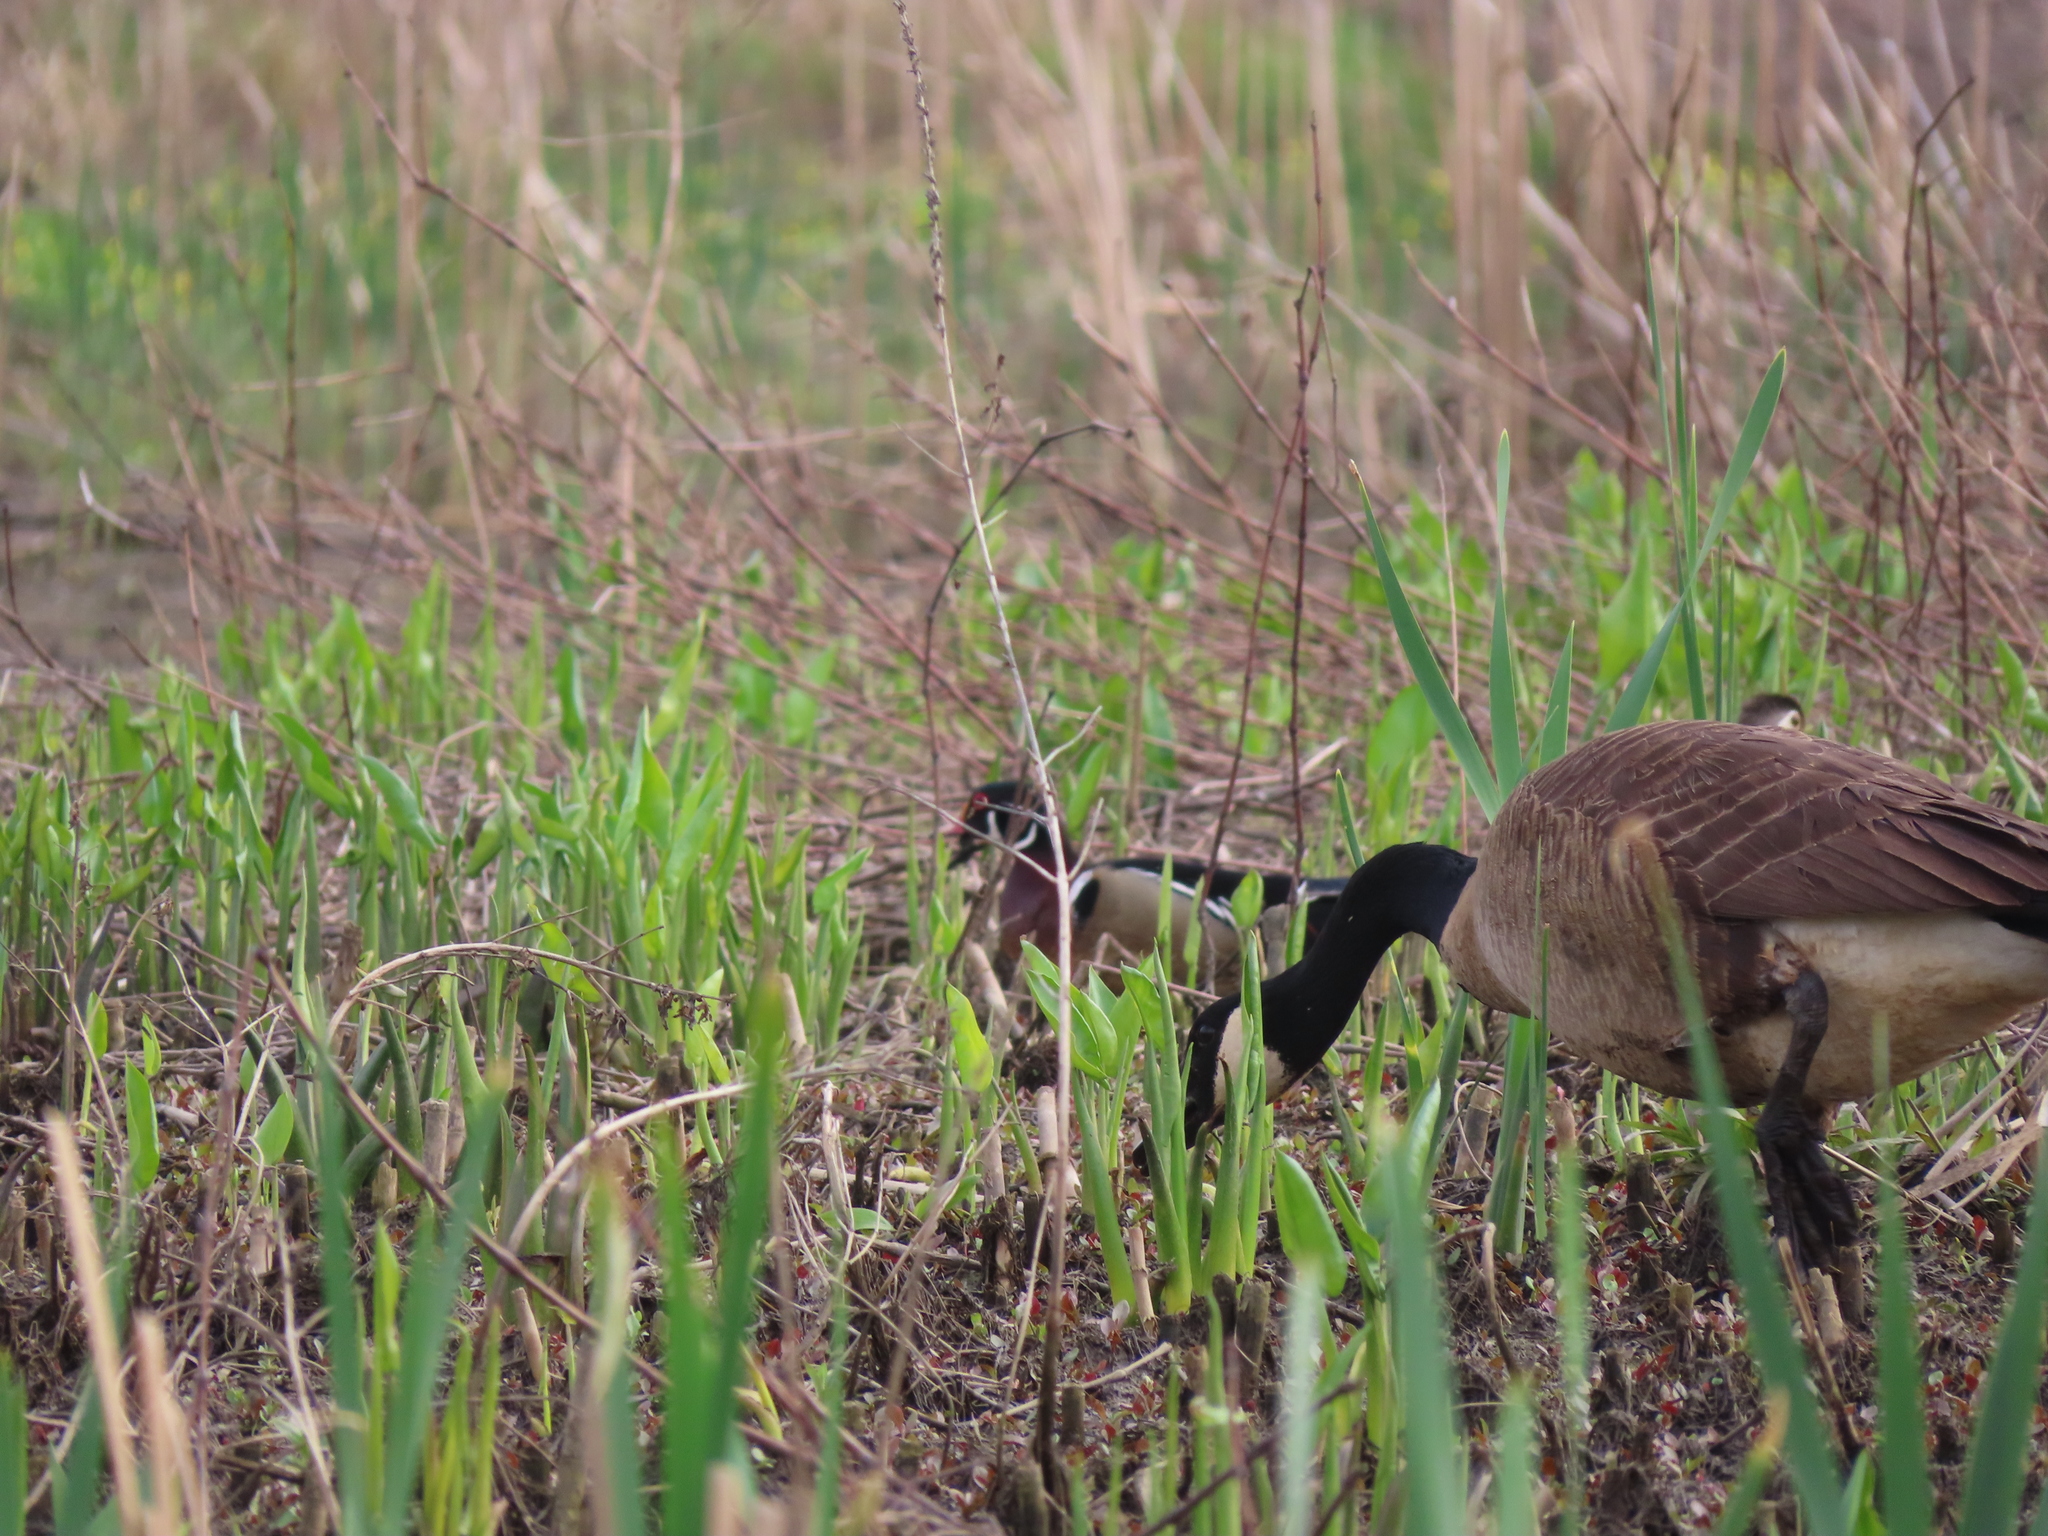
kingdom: Animalia
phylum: Chordata
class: Aves
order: Anseriformes
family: Anatidae
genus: Aix
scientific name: Aix sponsa
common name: Wood duck
